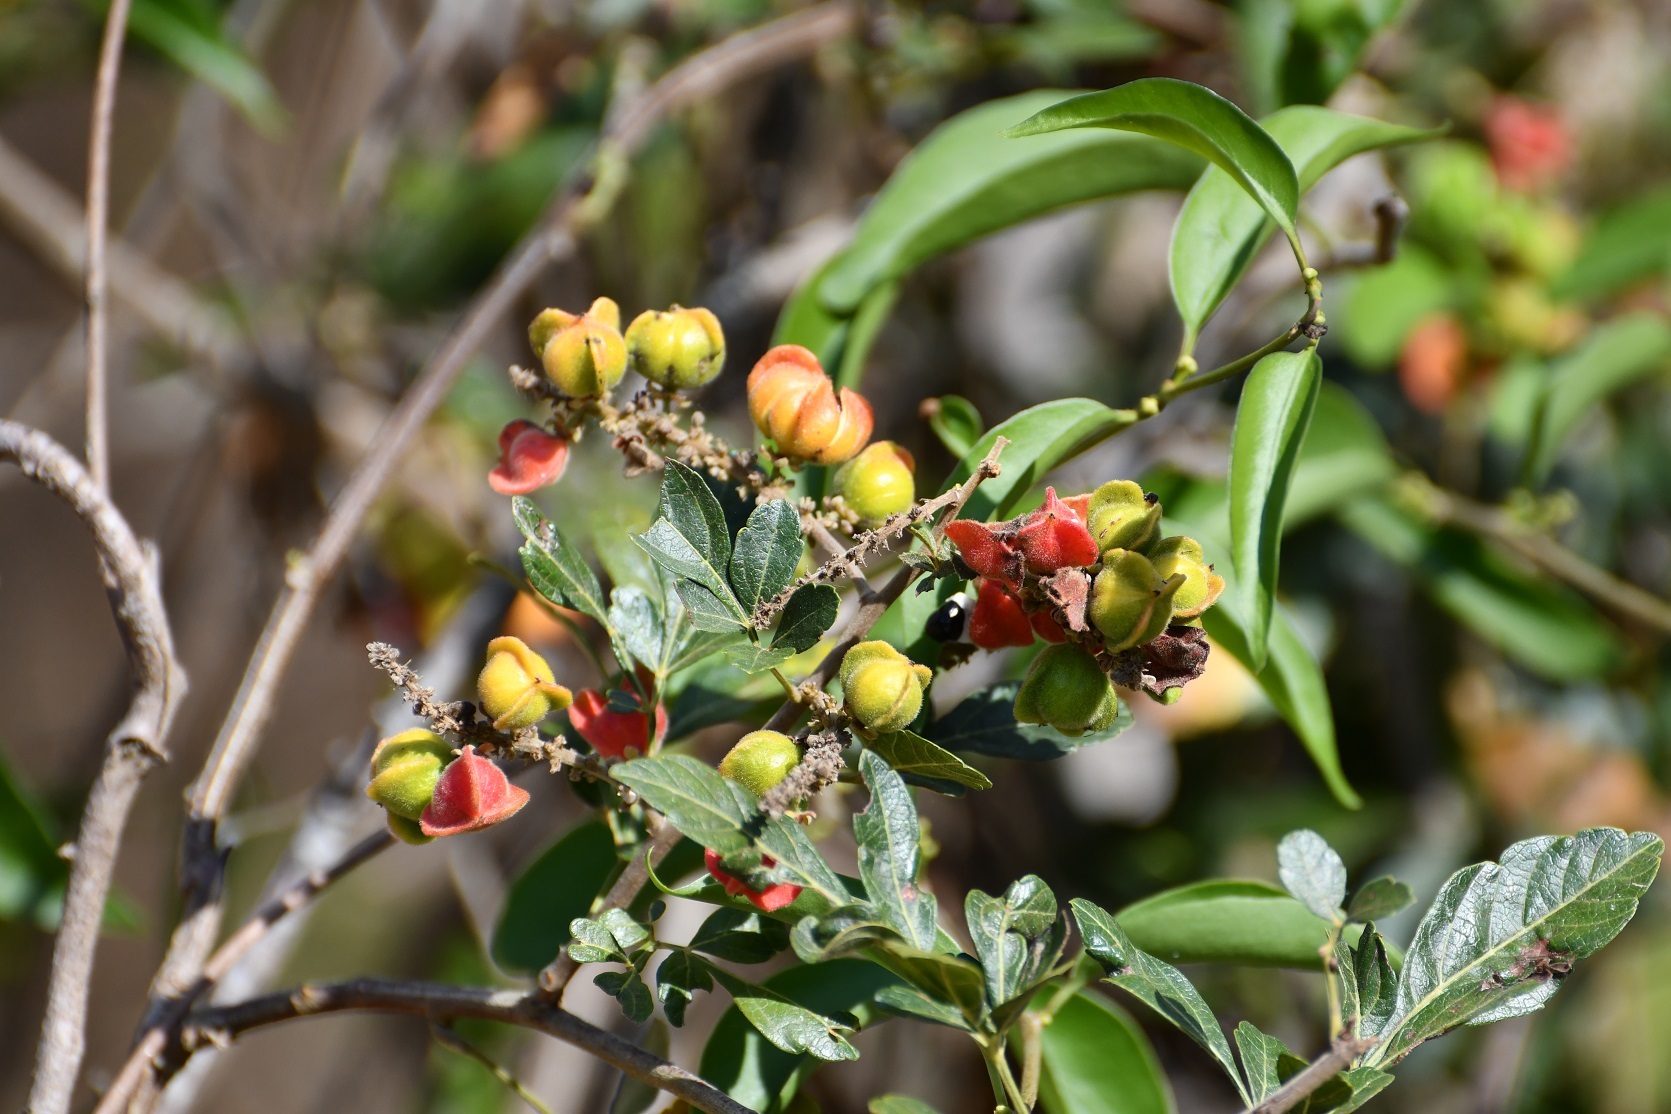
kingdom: Plantae
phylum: Tracheophyta
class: Magnoliopsida
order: Sapindales
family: Sapindaceae
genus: Paullinia
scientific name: Paullinia fuscescens
